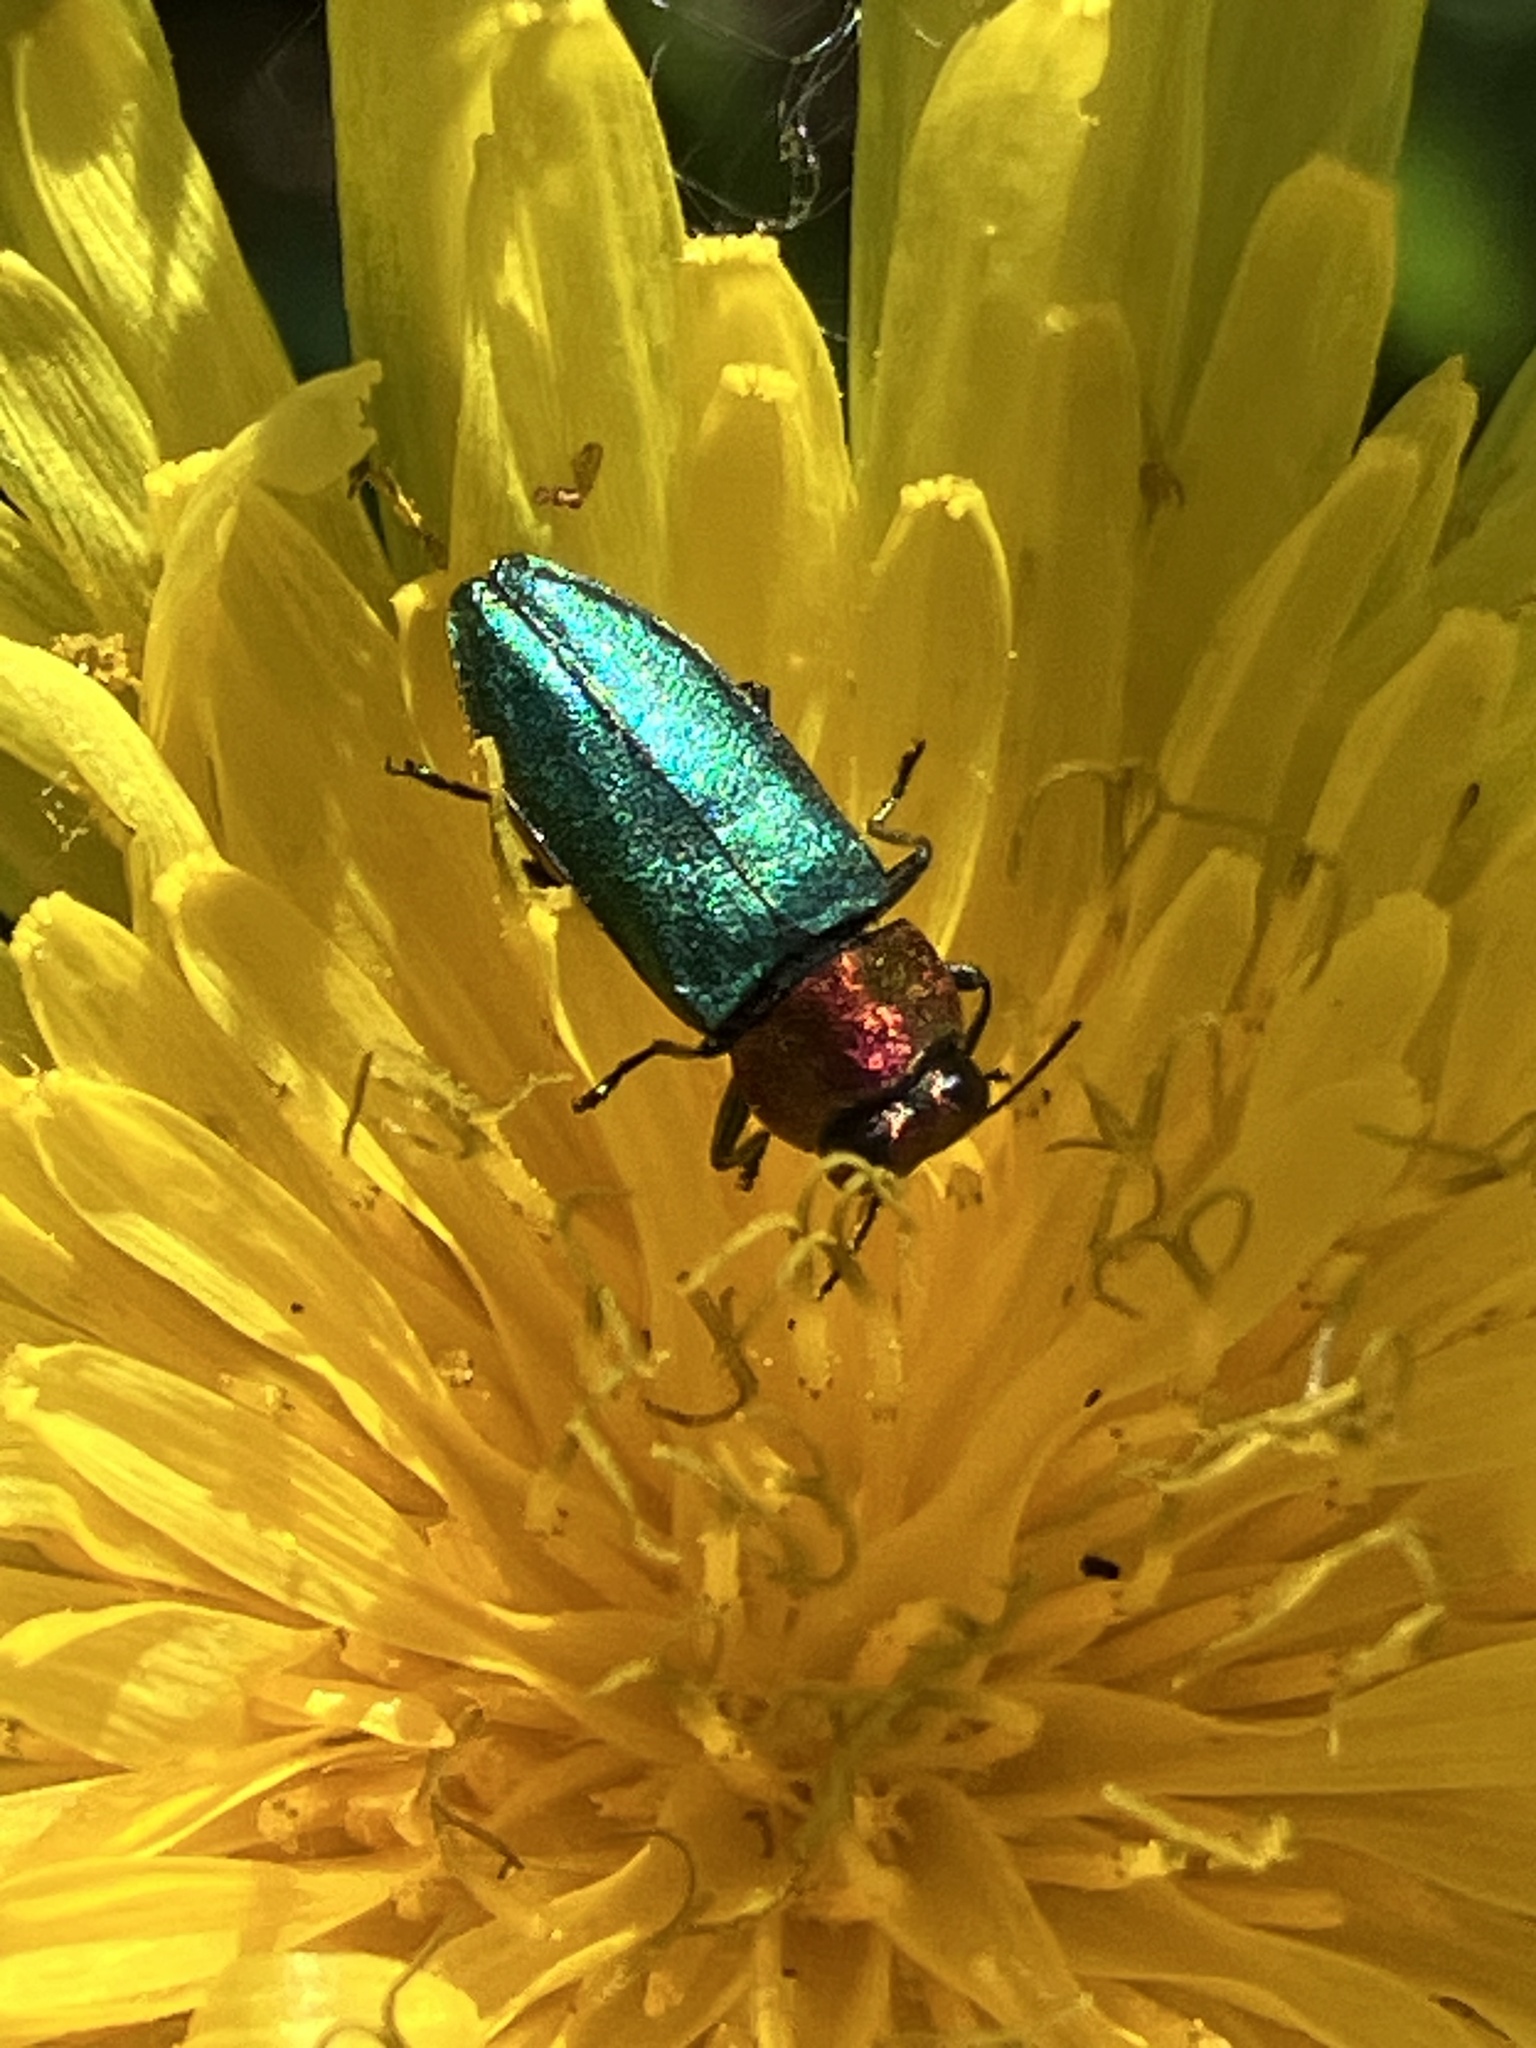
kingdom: Animalia
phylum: Arthropoda
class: Insecta
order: Coleoptera
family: Buprestidae
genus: Anthaxia
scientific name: Anthaxia nitidula
